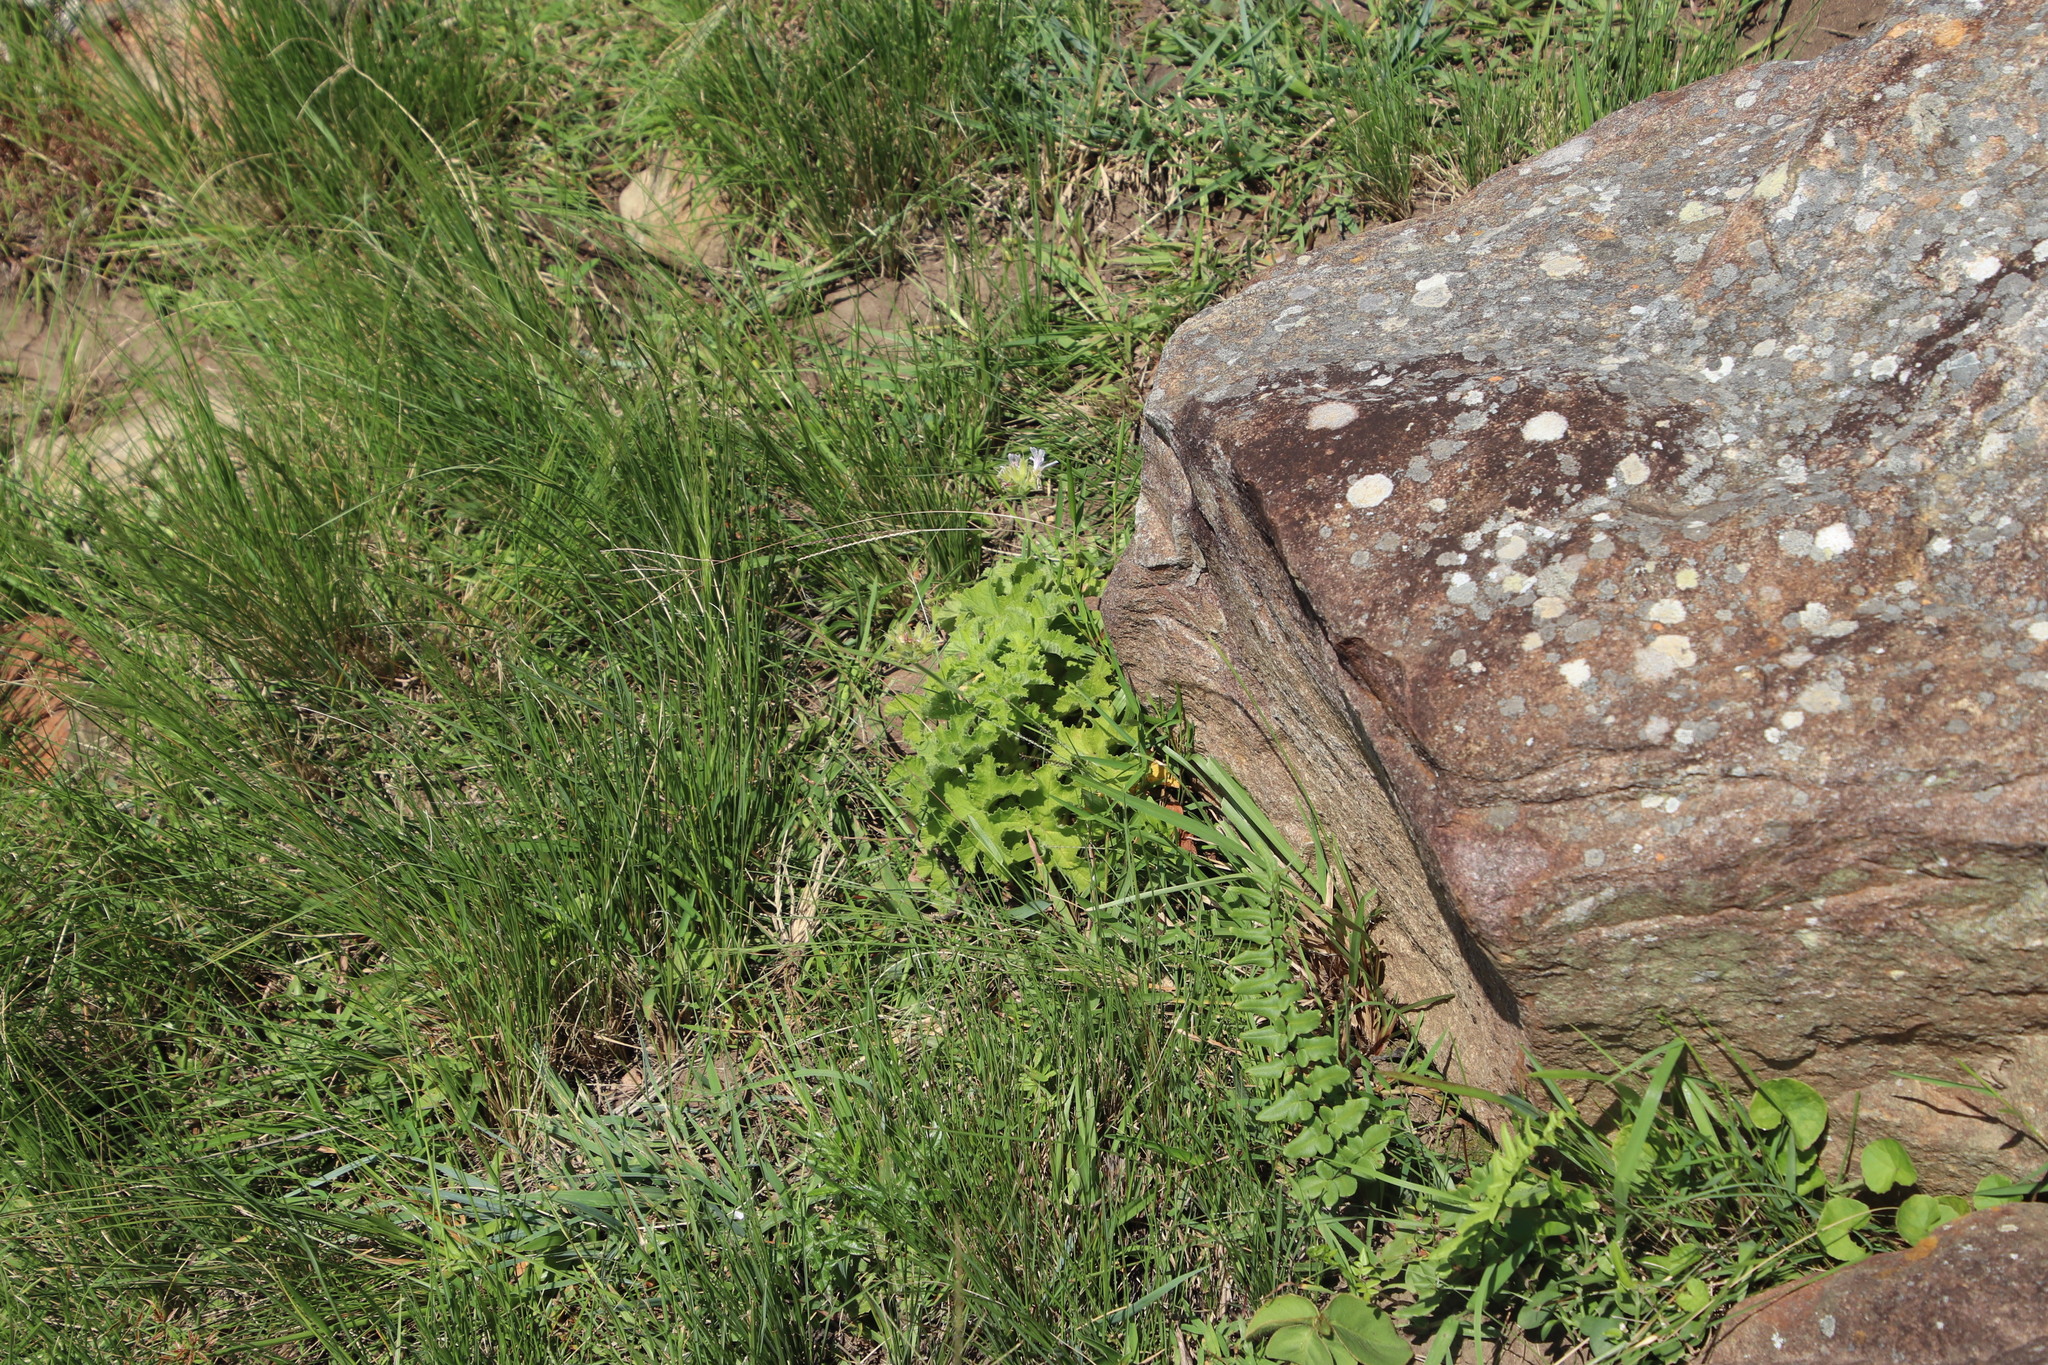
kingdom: Plantae
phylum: Tracheophyta
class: Magnoliopsida
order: Geraniales
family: Geraniaceae
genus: Pelargonium
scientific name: Pelargonium capitatum
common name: Rose scented geranium
